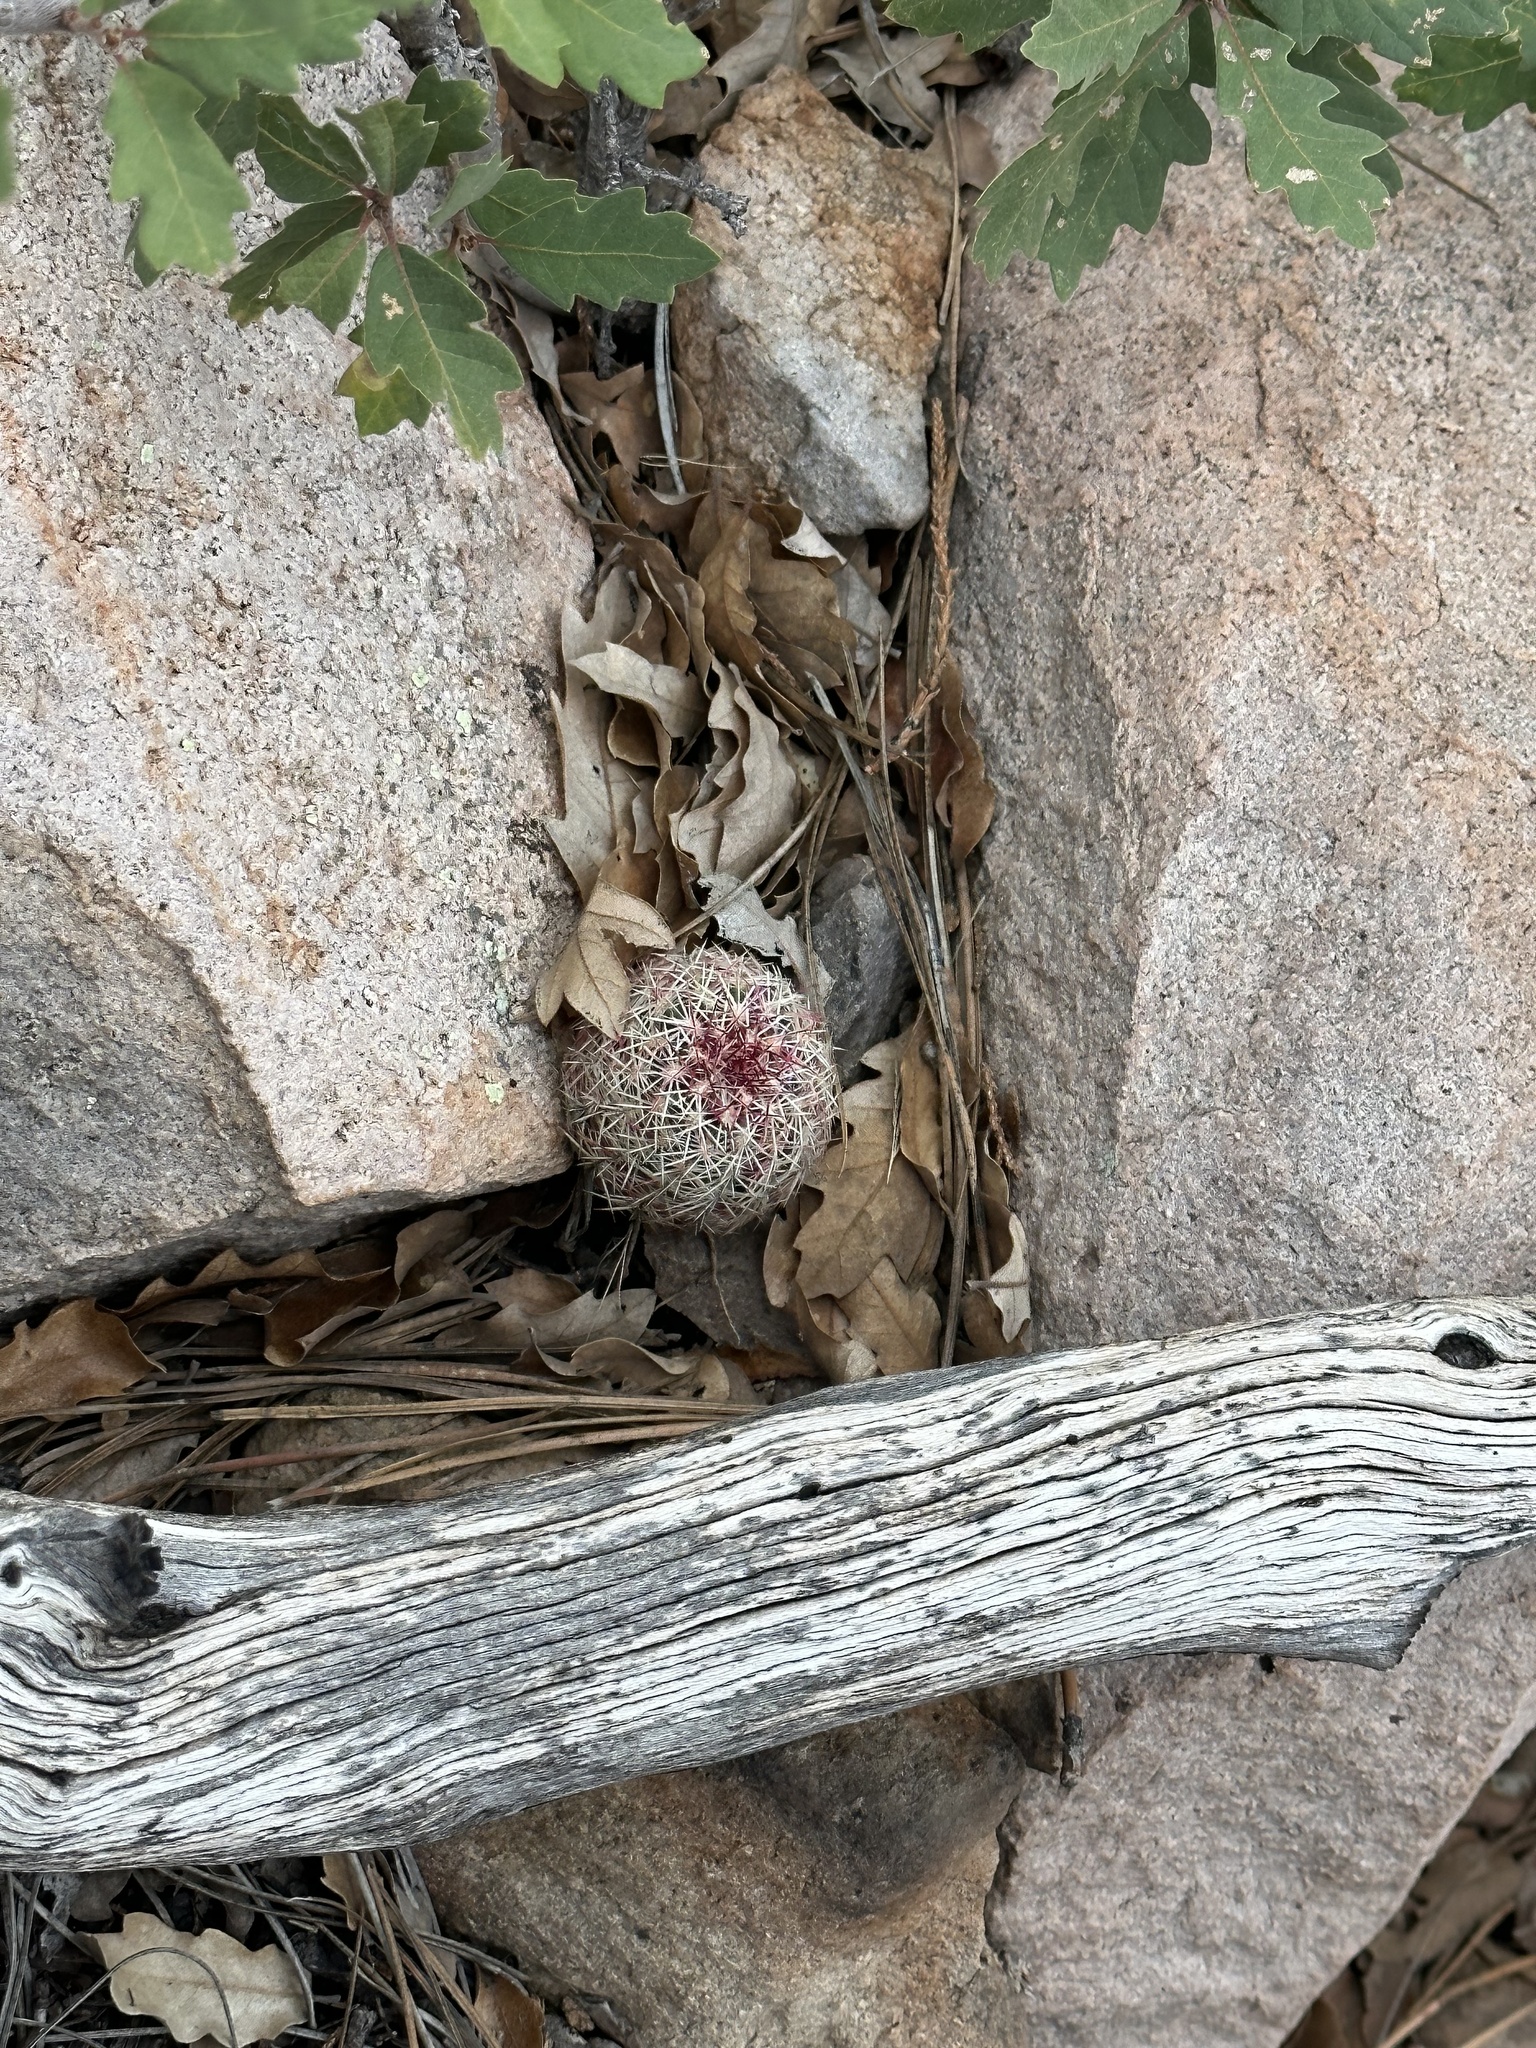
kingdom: Plantae
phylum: Tracheophyta
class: Magnoliopsida
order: Caryophyllales
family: Cactaceae
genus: Echinocereus
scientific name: Echinocereus viridiflorus
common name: Nylon hedgehog cactus
